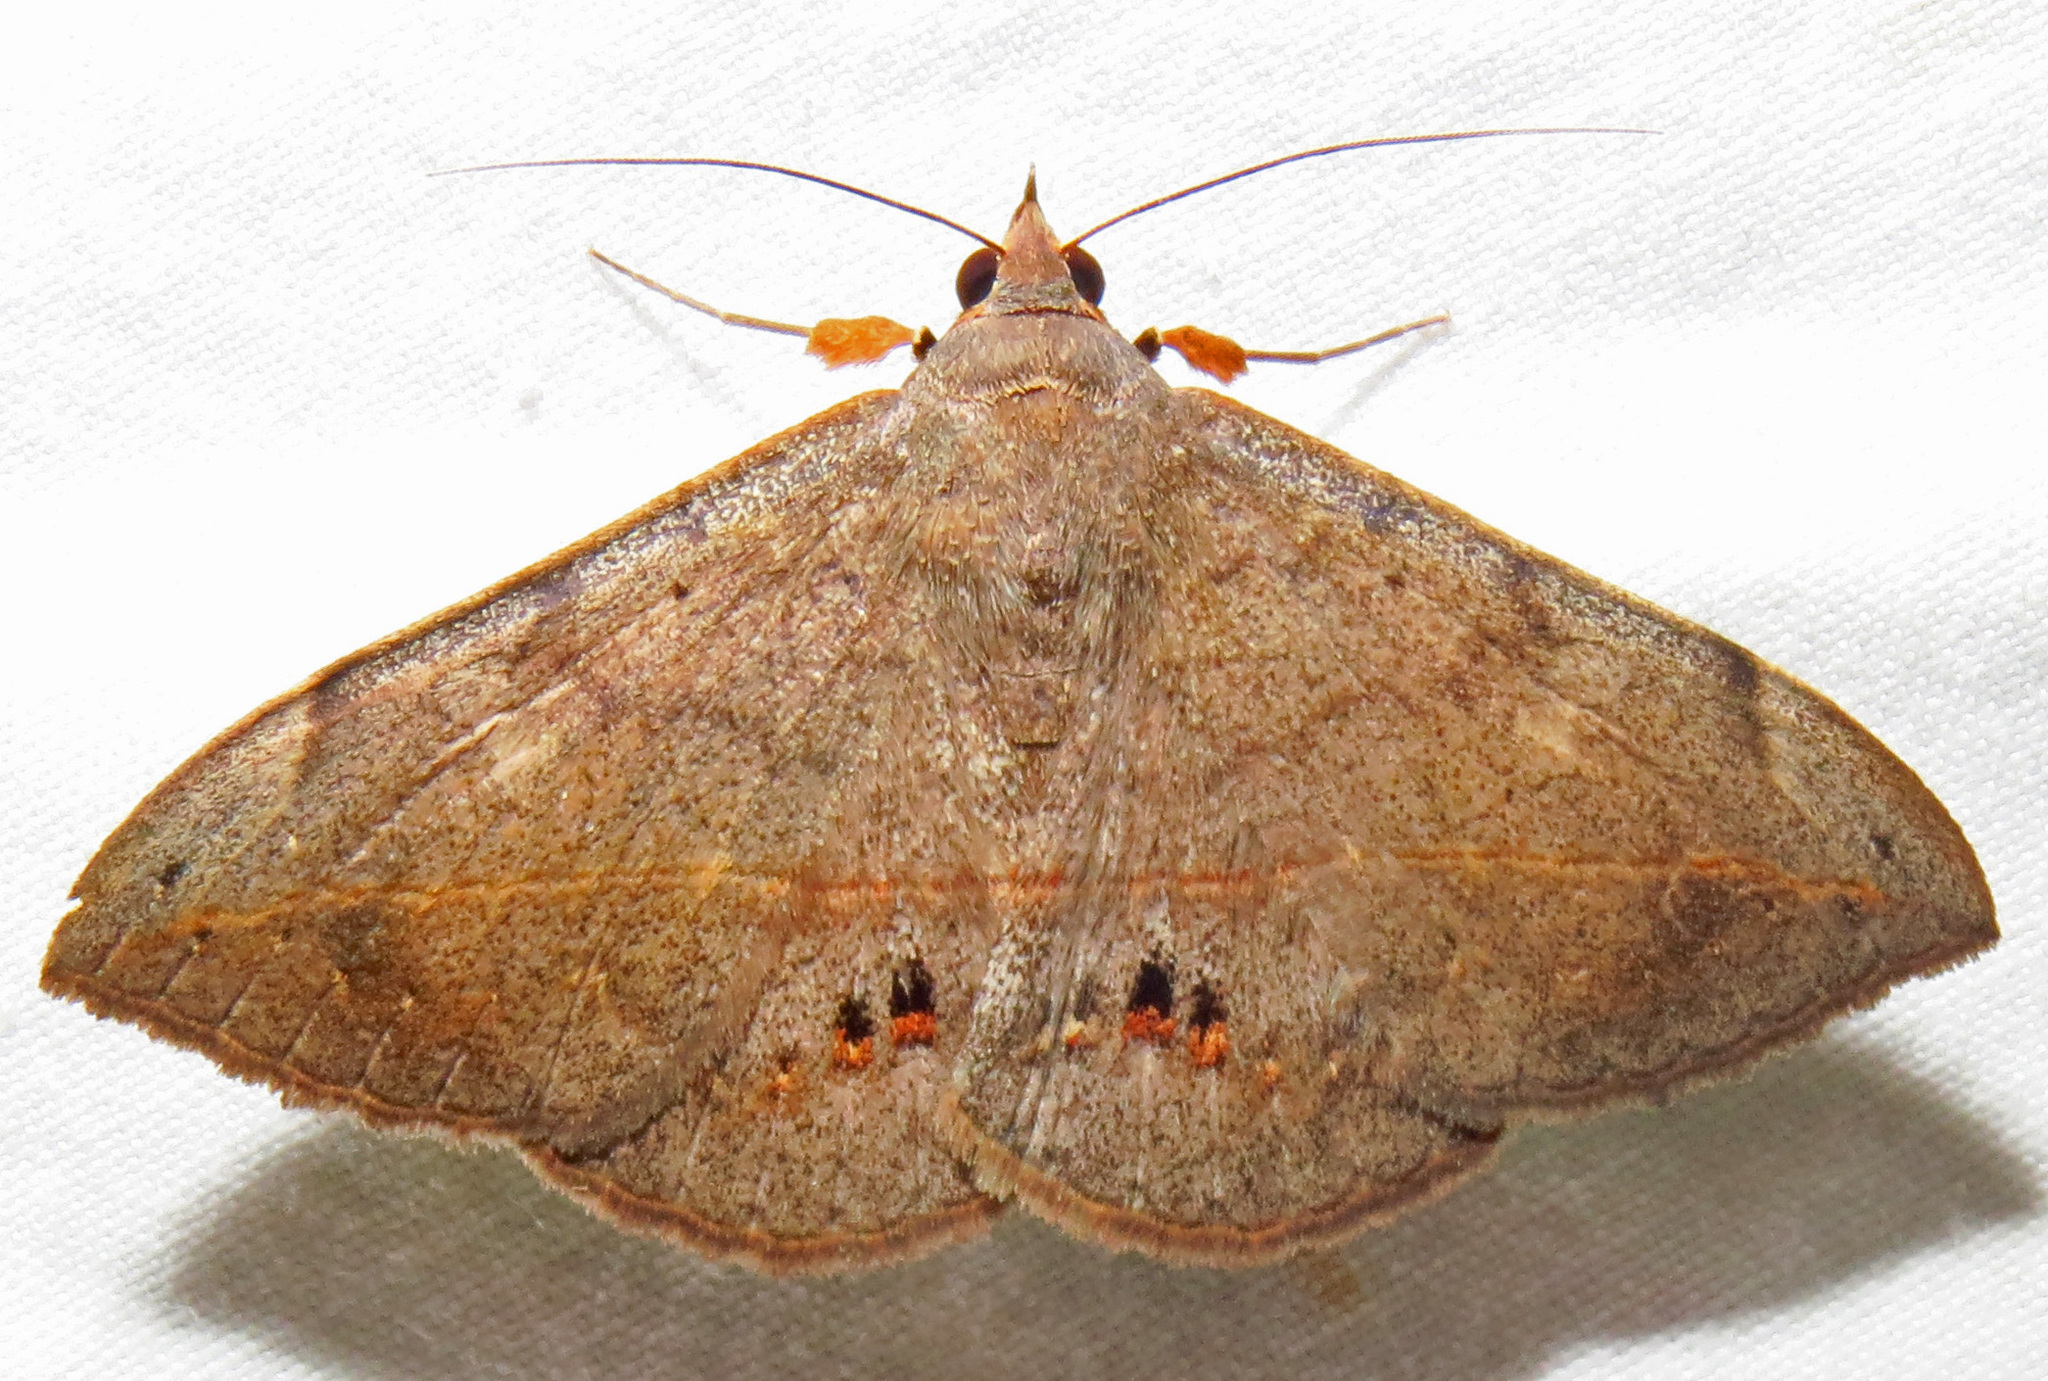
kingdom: Animalia
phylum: Arthropoda
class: Insecta
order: Lepidoptera
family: Erebidae
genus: Anticarsia
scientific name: Anticarsia gemmatalis
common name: Cutworm moth
